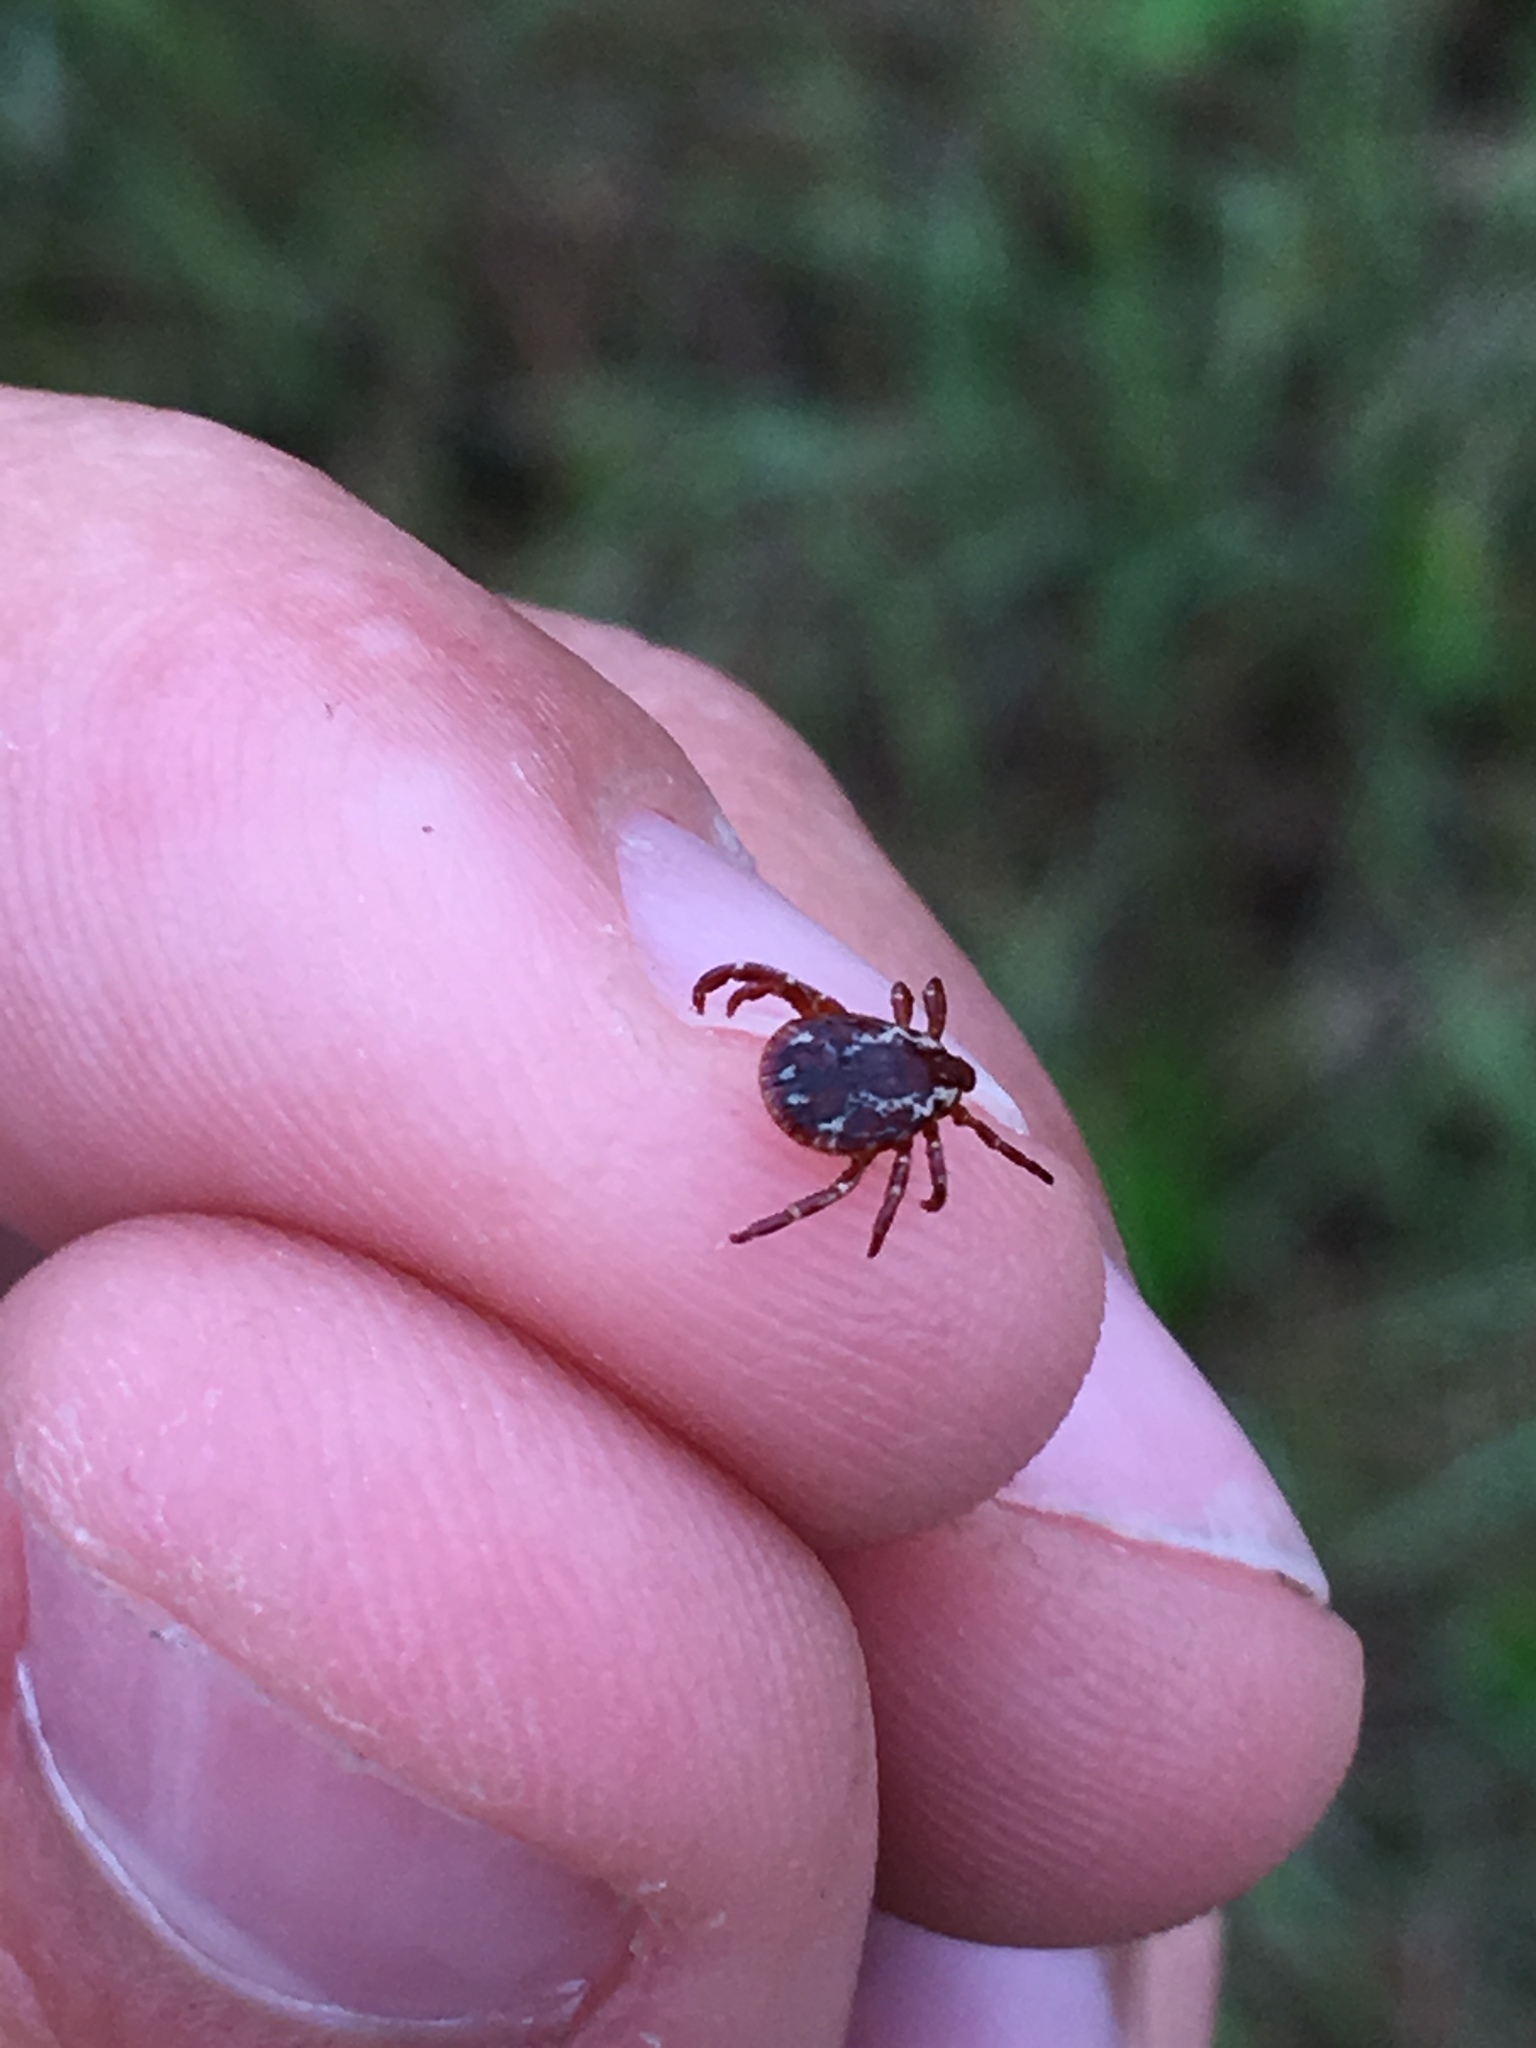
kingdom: Animalia
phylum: Arthropoda
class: Arachnida
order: Ixodida
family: Ixodidae
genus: Dermacentor
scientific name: Dermacentor variabilis
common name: American dog tick
